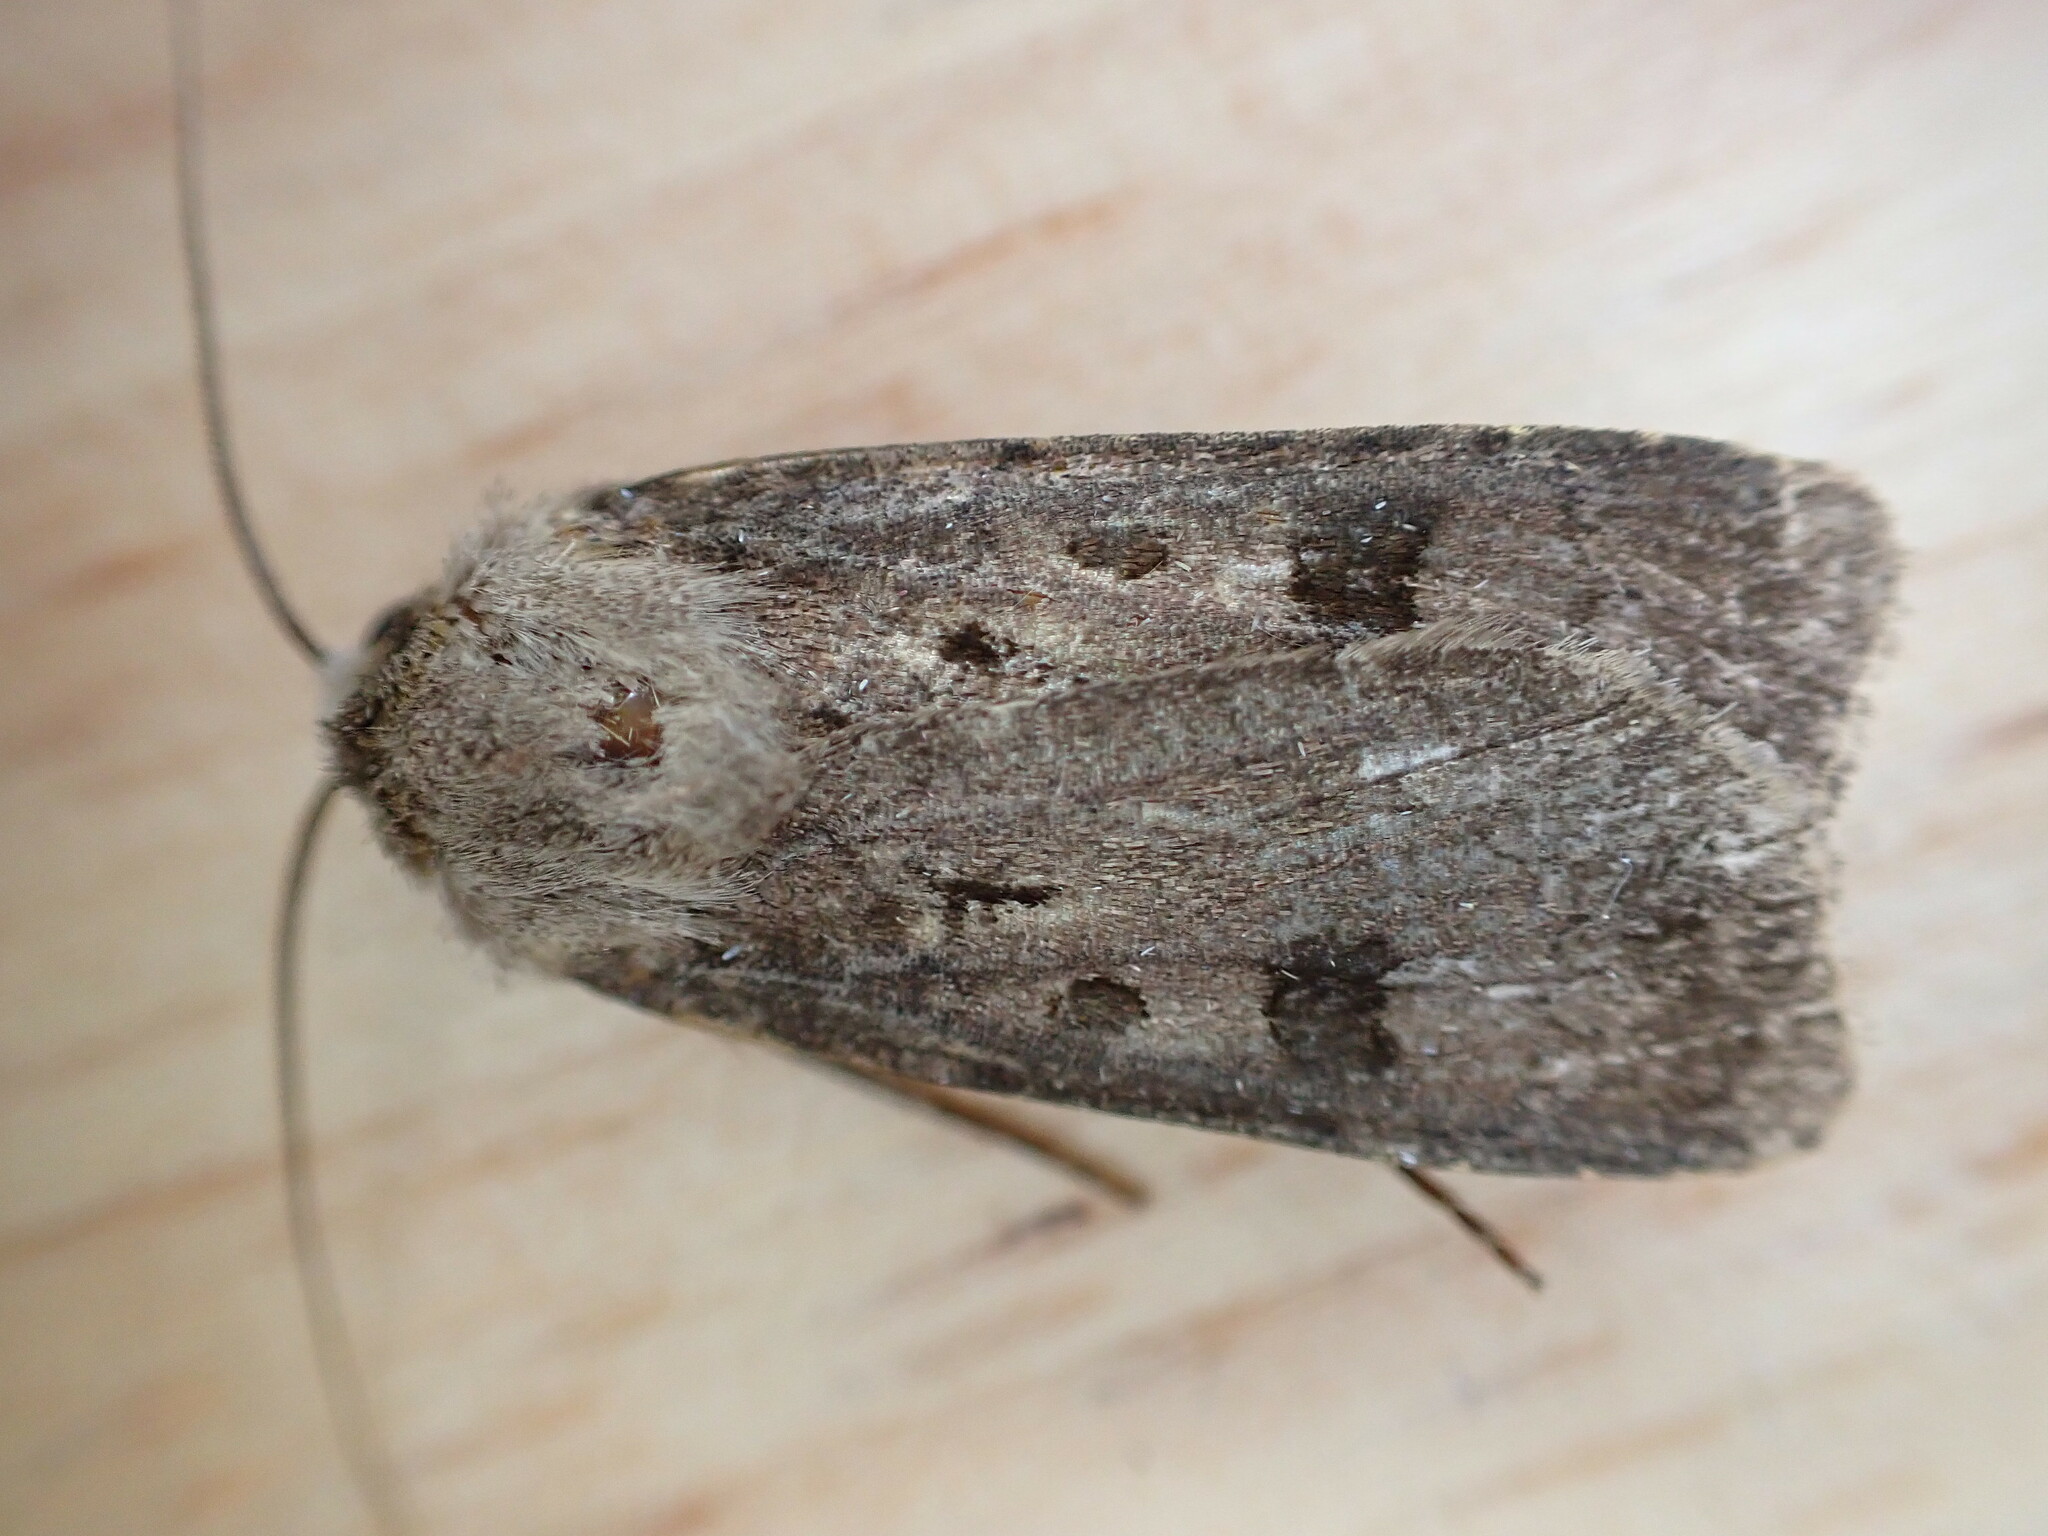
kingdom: Animalia
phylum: Arthropoda
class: Insecta
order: Lepidoptera
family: Noctuidae
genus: Agrotis
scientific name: Agrotis exclamationis
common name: Heart and dart
